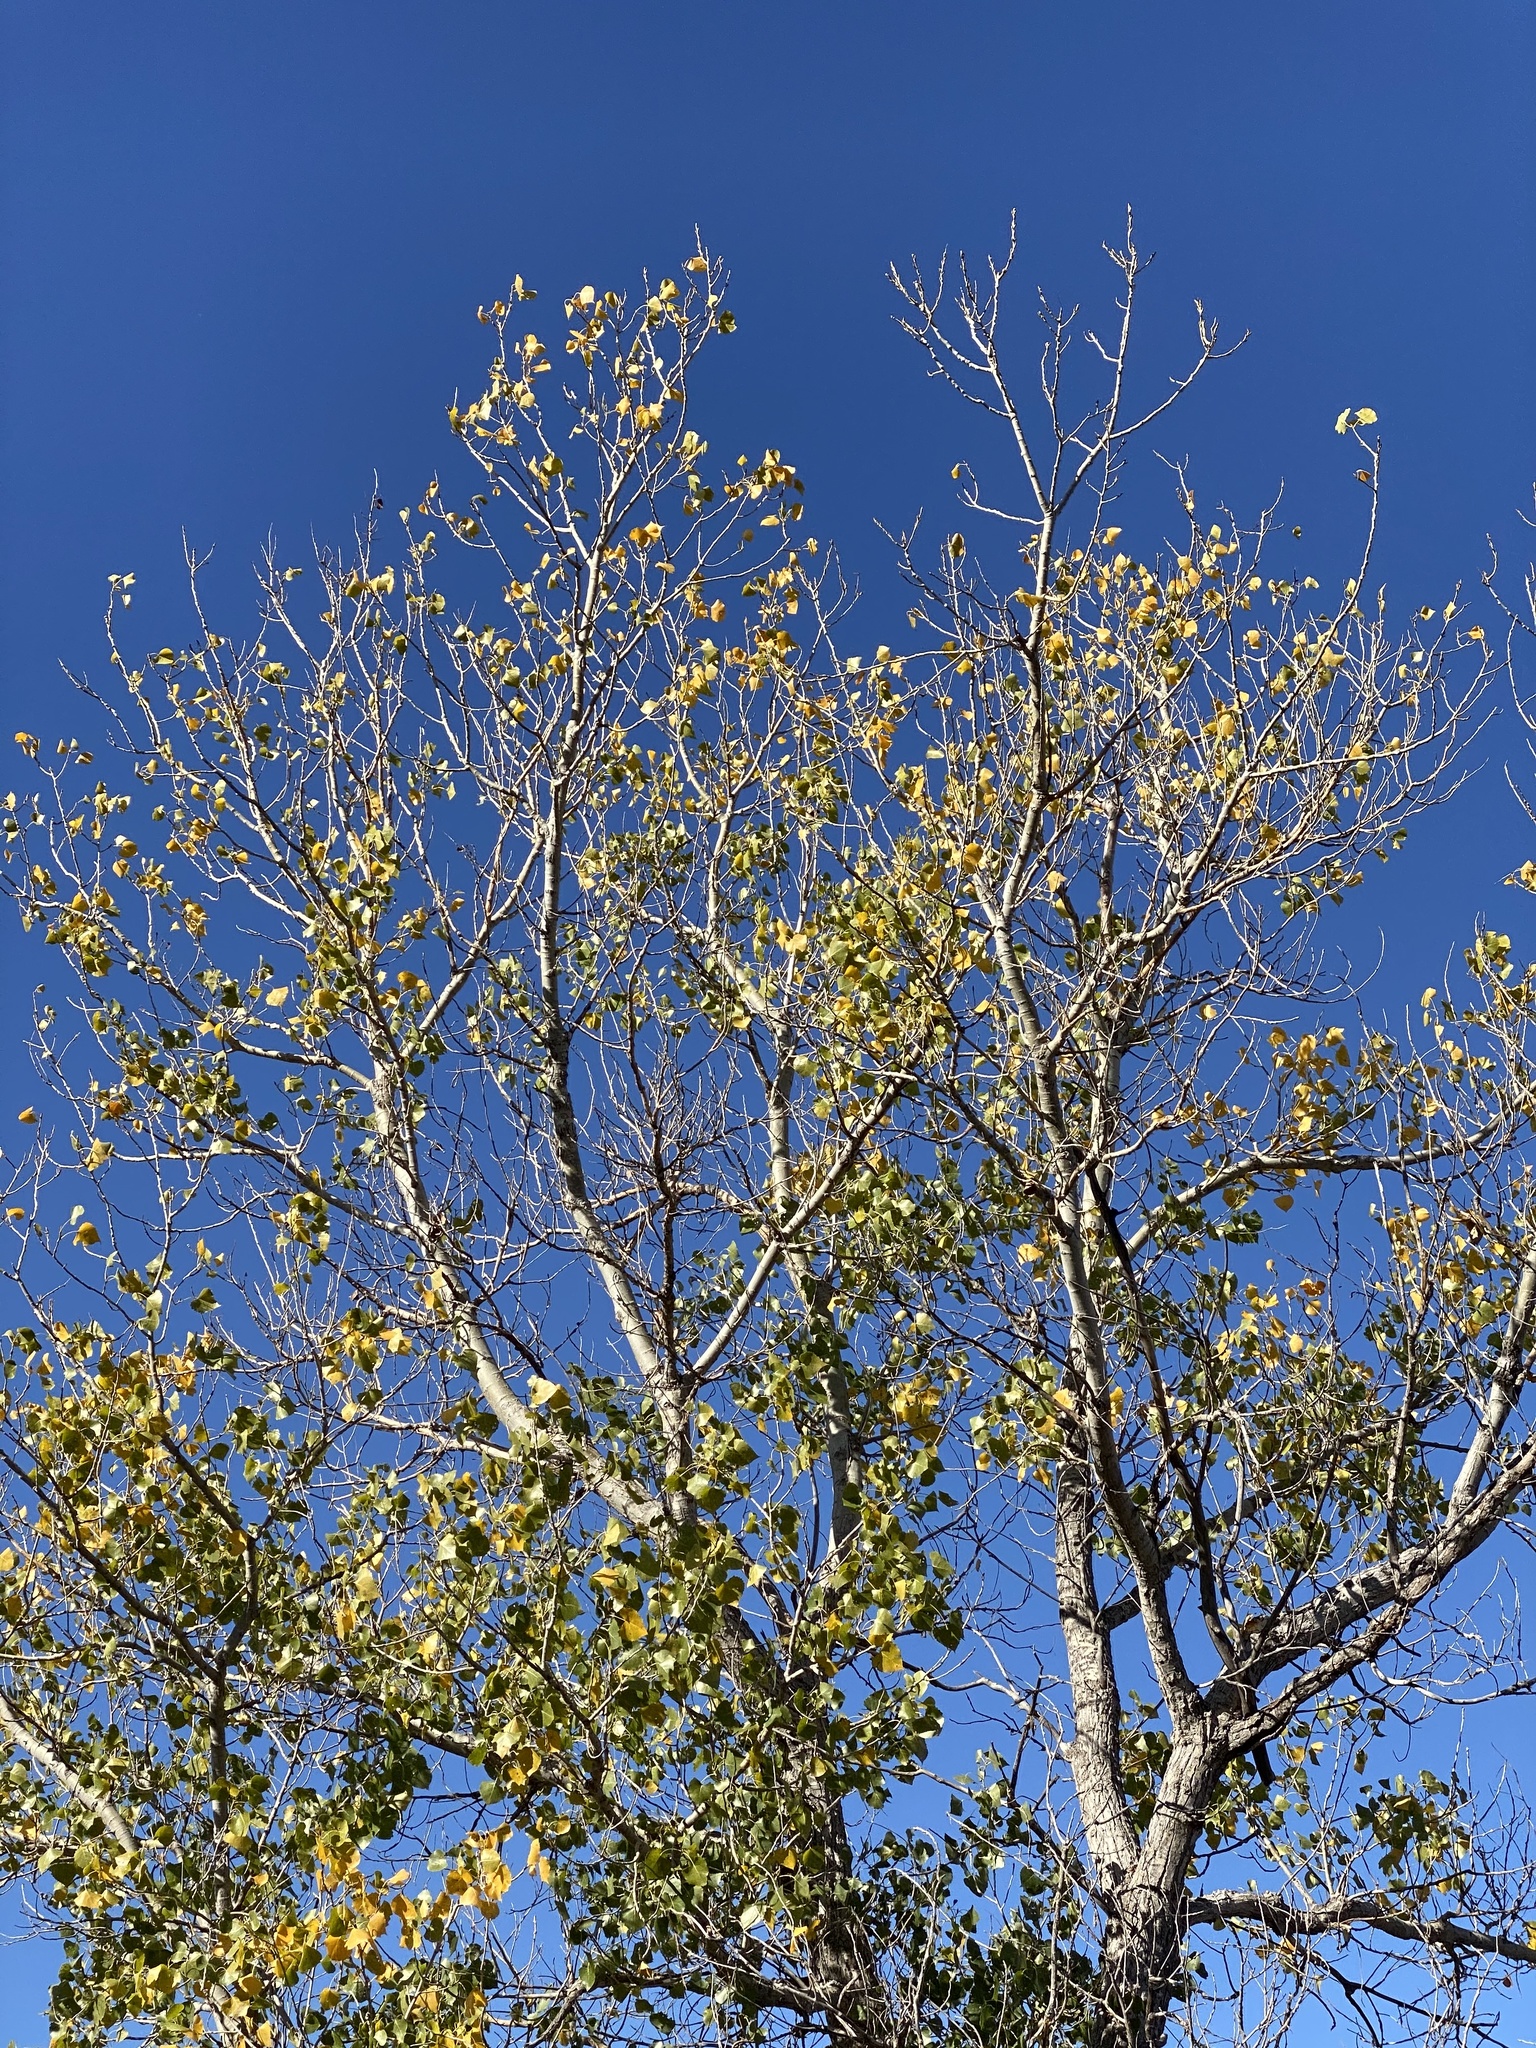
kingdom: Plantae
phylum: Tracheophyta
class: Magnoliopsida
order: Malpighiales
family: Salicaceae
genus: Populus
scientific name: Populus deltoides
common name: Eastern cottonwood
